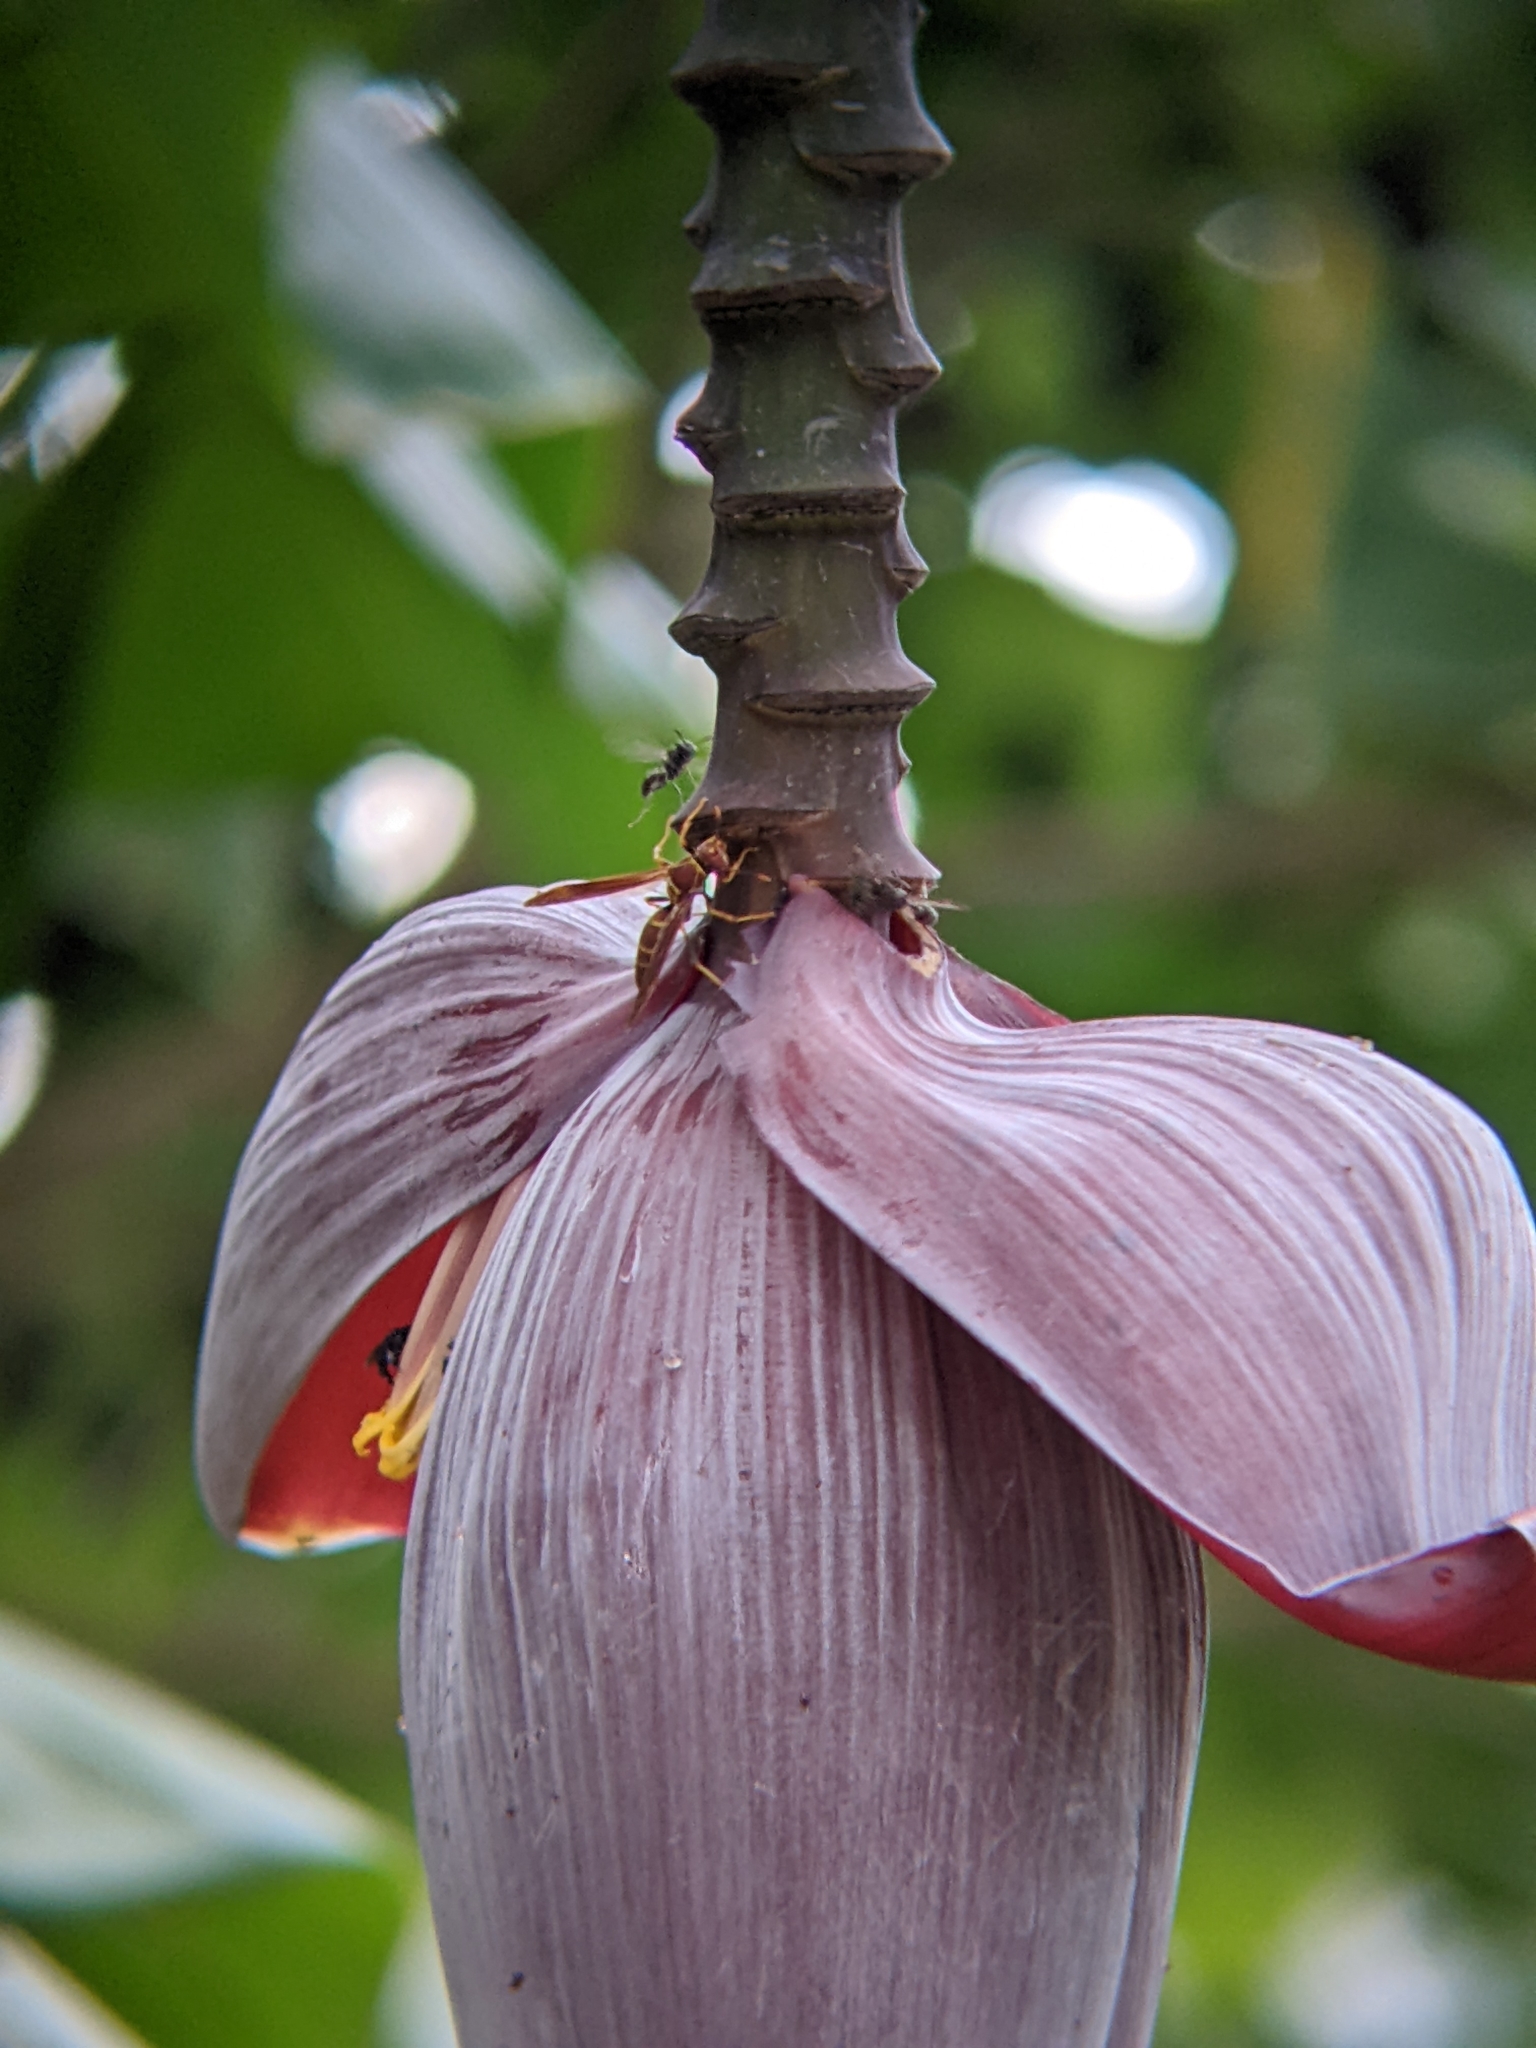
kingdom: Animalia
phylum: Arthropoda
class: Insecta
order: Hymenoptera
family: Eumenidae
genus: Polistes
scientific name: Polistes instabilis
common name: Unstable paper wasp
